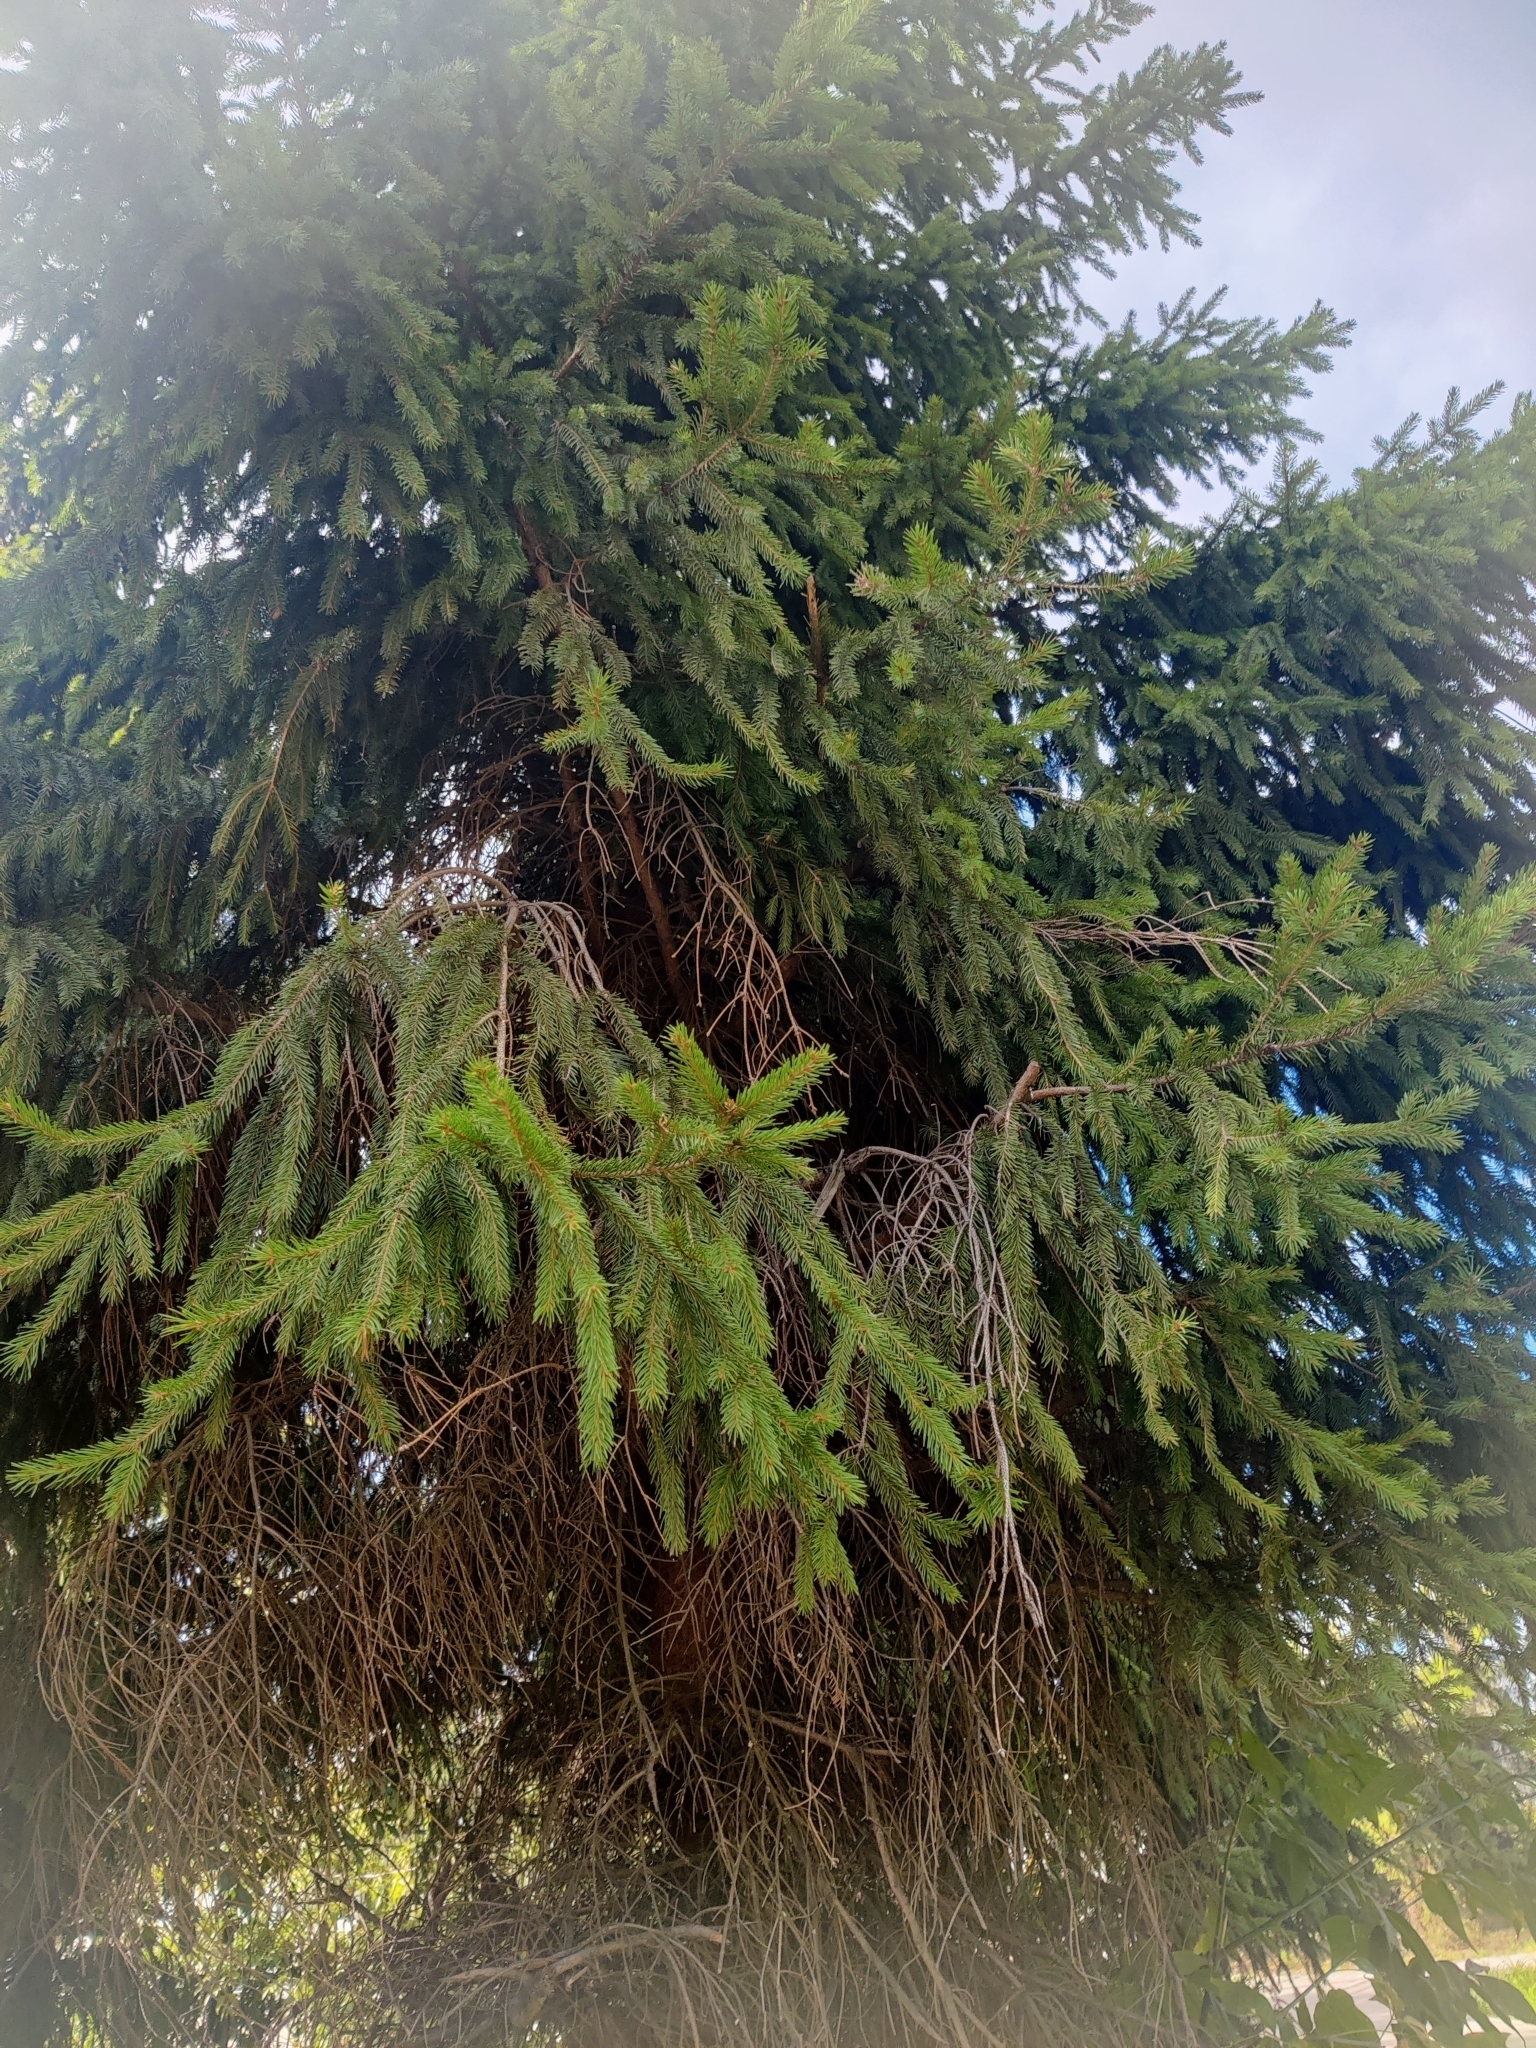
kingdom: Plantae
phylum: Tracheophyta
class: Pinopsida
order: Pinales
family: Pinaceae
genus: Picea
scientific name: Picea abies
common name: Norway spruce
